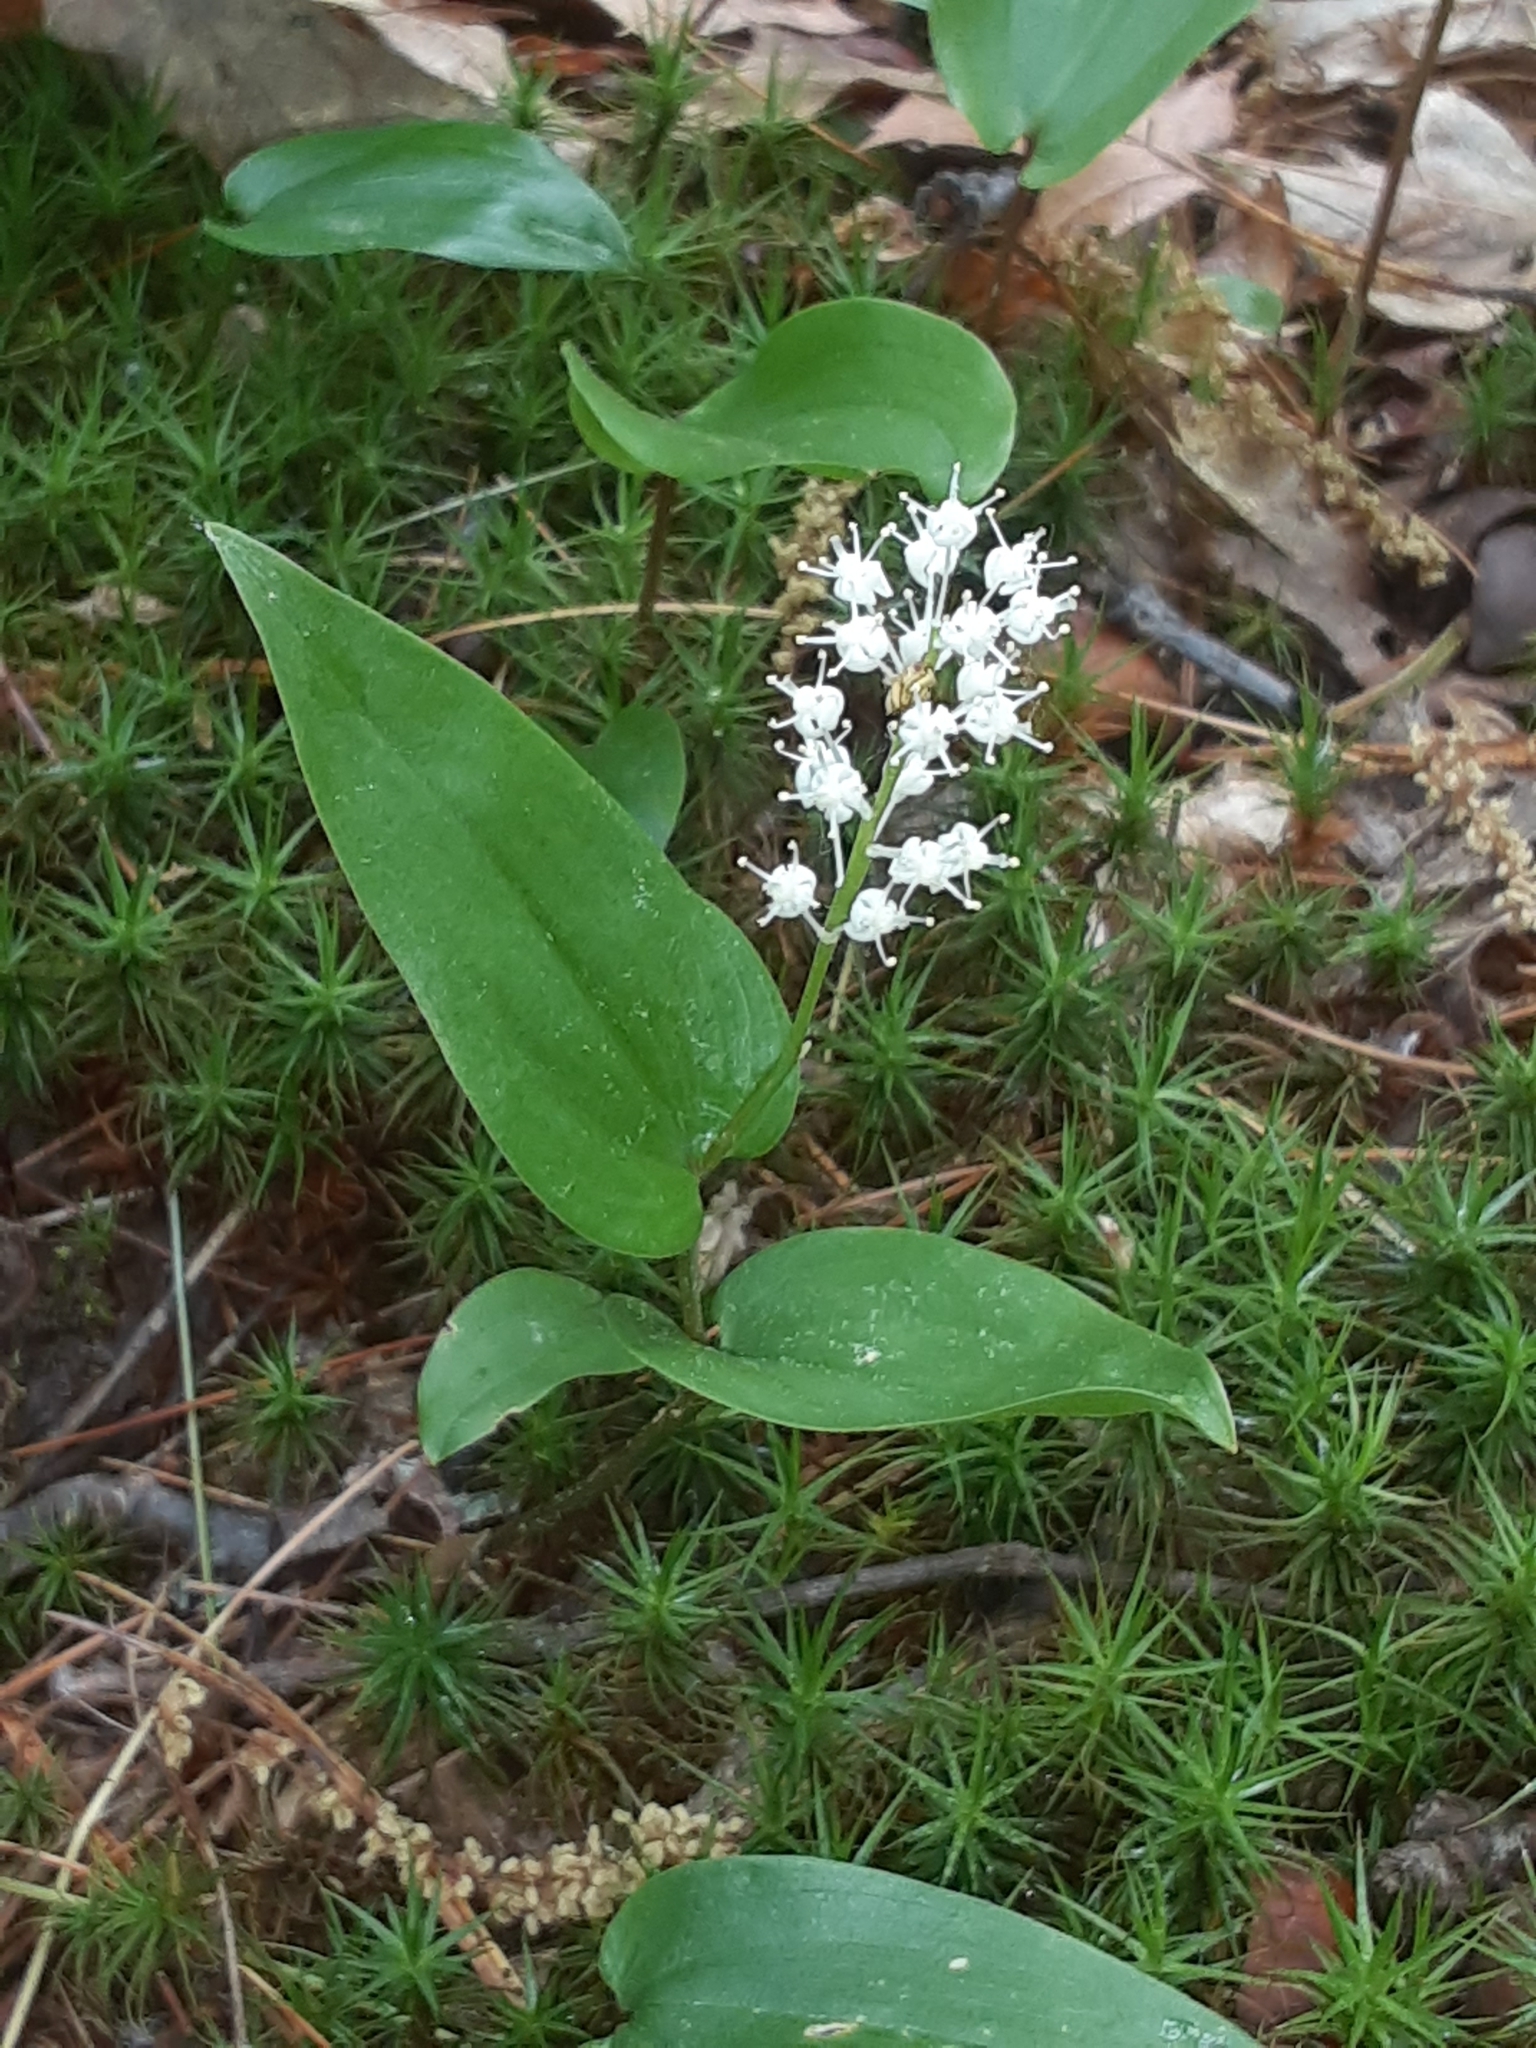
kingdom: Plantae
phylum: Tracheophyta
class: Liliopsida
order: Asparagales
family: Asparagaceae
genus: Maianthemum
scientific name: Maianthemum canadense
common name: False lily-of-the-valley
